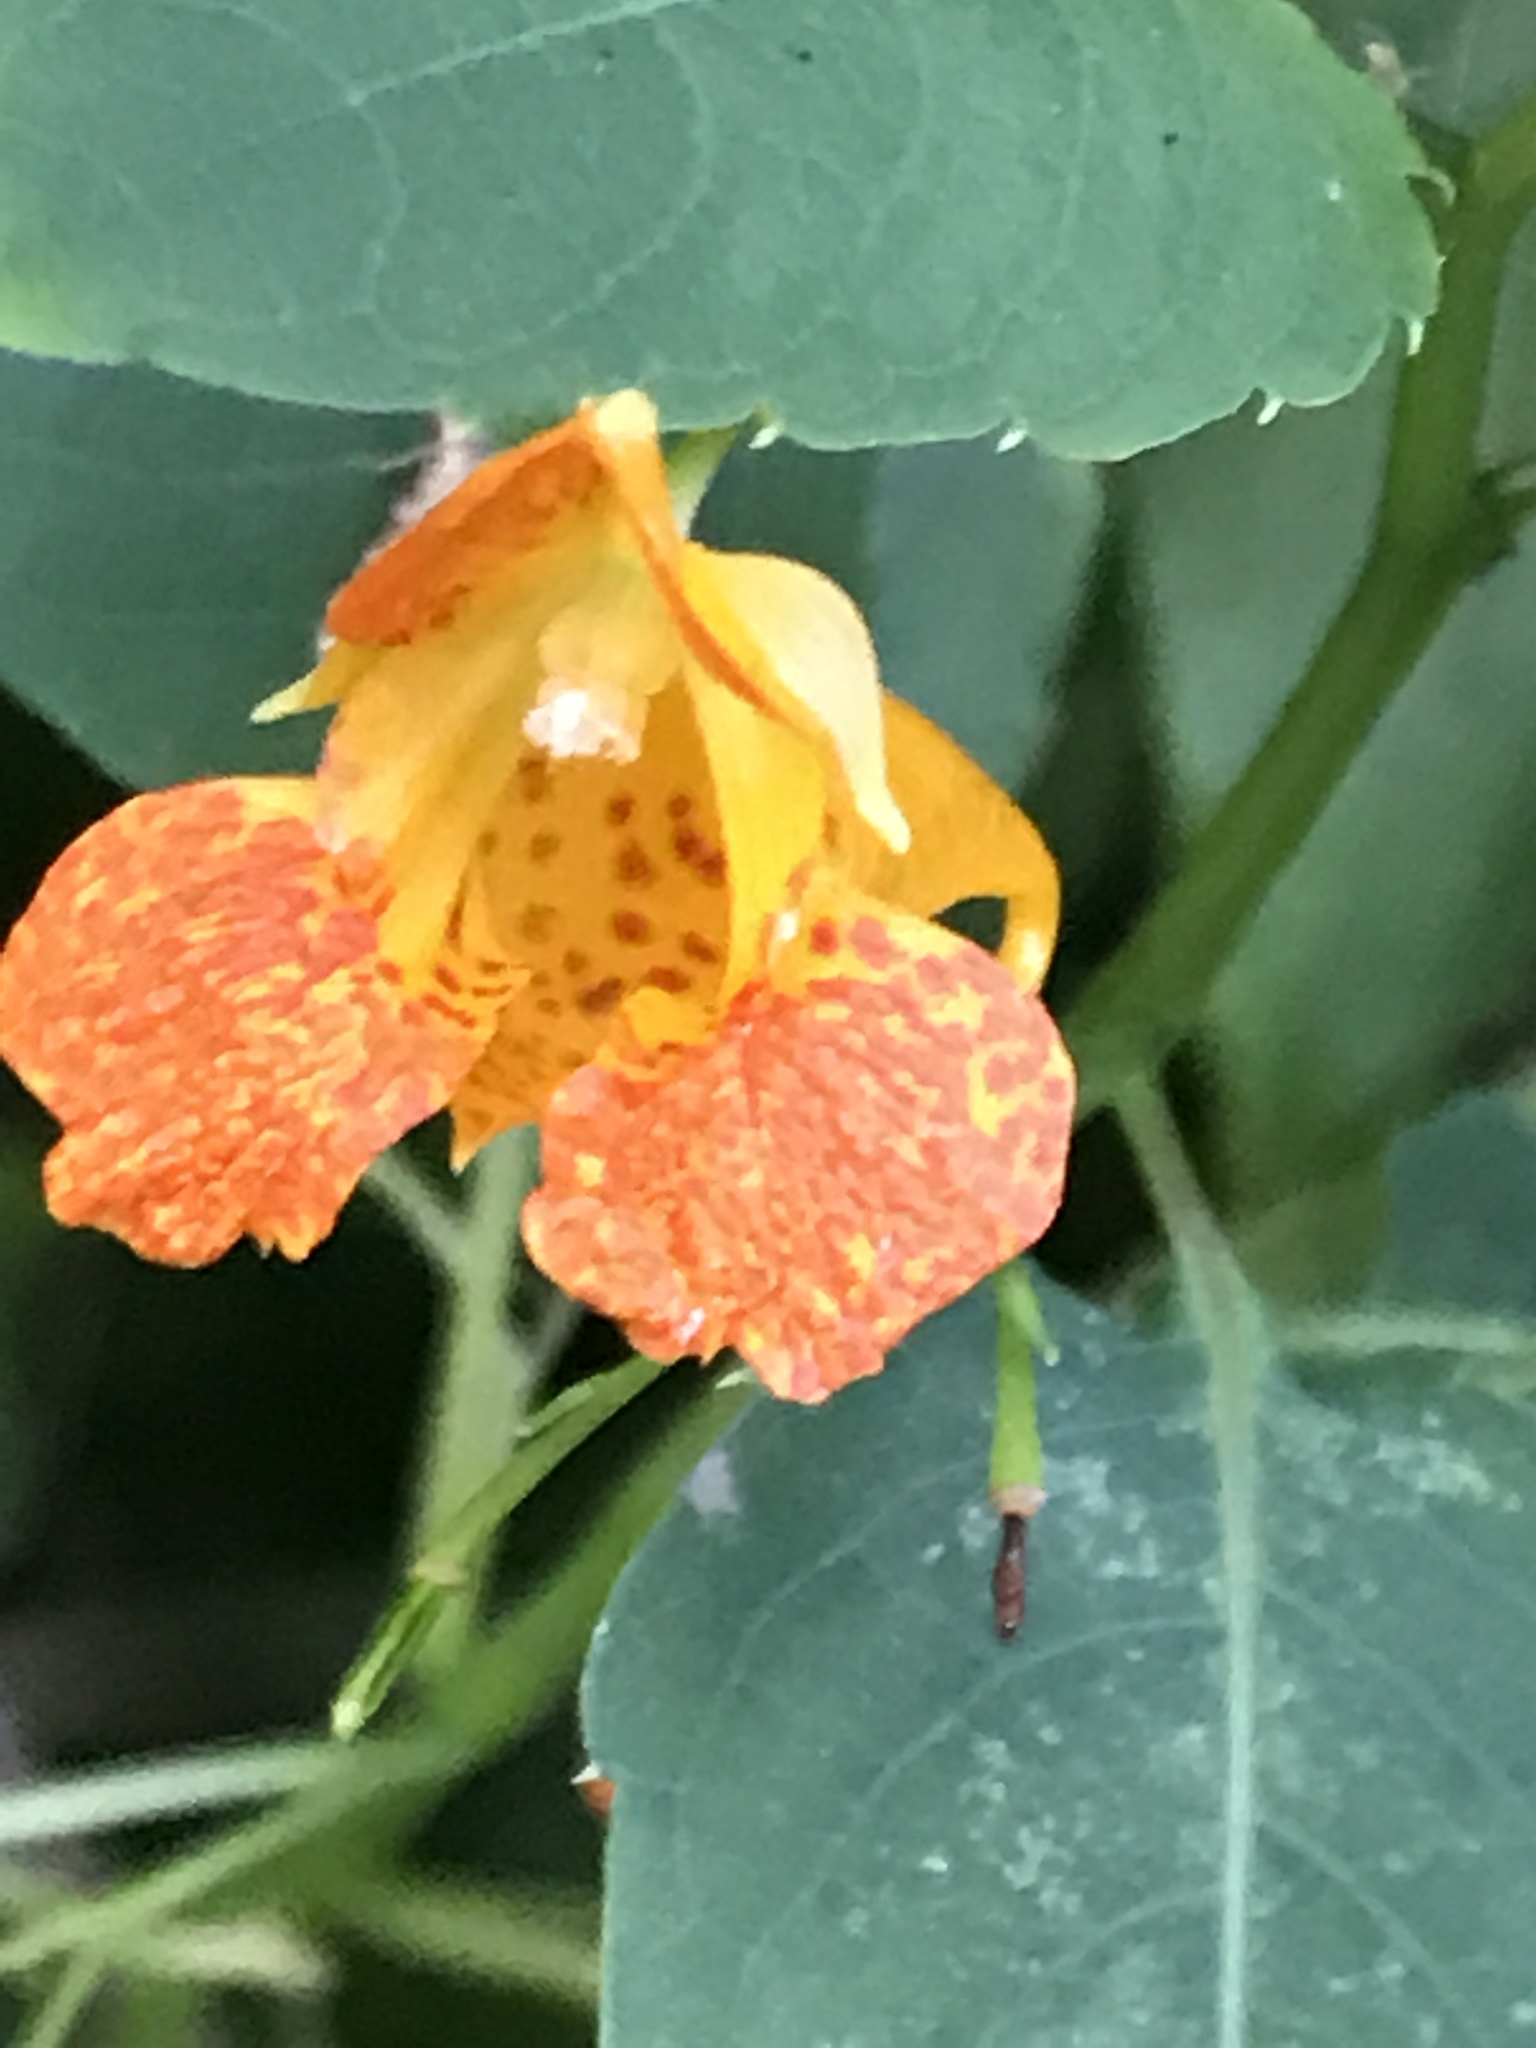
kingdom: Plantae
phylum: Tracheophyta
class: Magnoliopsida
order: Ericales
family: Balsaminaceae
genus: Impatiens
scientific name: Impatiens capensis
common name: Orange balsam
